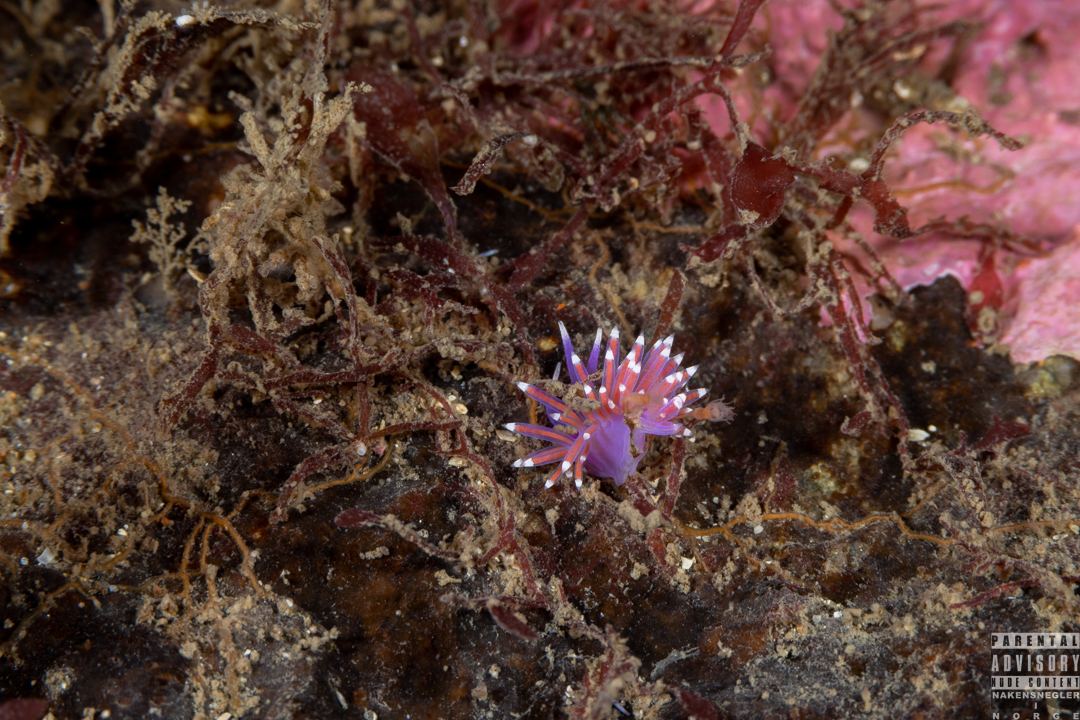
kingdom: Animalia
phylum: Mollusca
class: Gastropoda
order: Nudibranchia
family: Flabellinidae
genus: Edmundsella
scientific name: Edmundsella pedata
